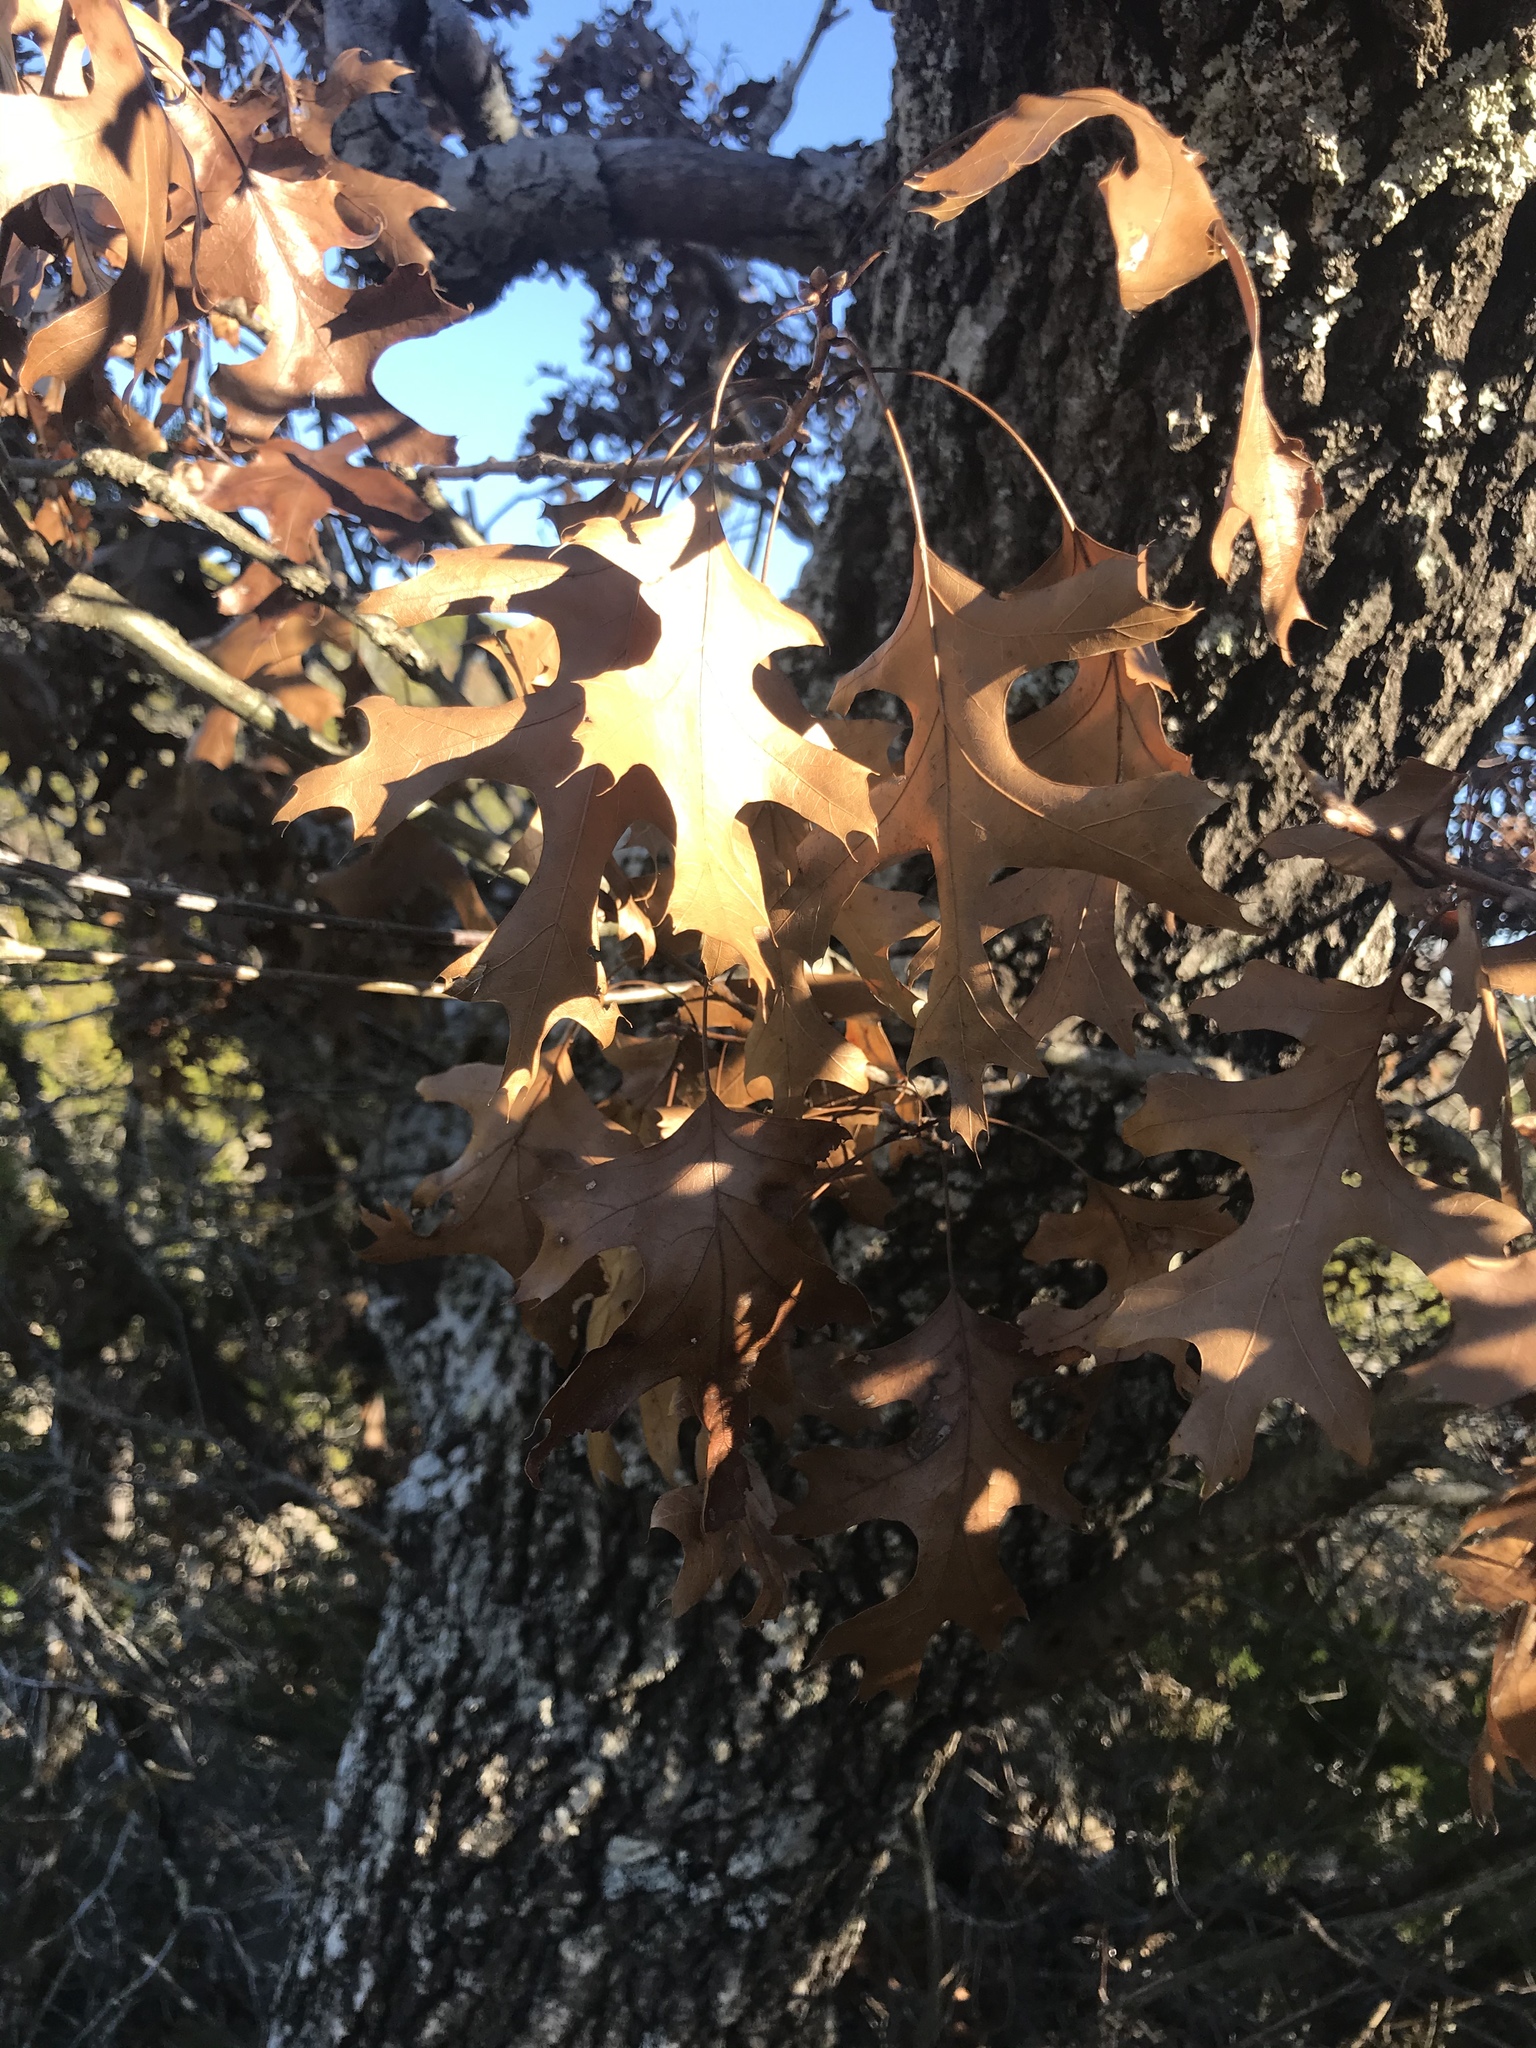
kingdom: Plantae
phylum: Tracheophyta
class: Magnoliopsida
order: Fagales
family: Fagaceae
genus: Quercus
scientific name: Quercus buckleyi
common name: Buckley oak
